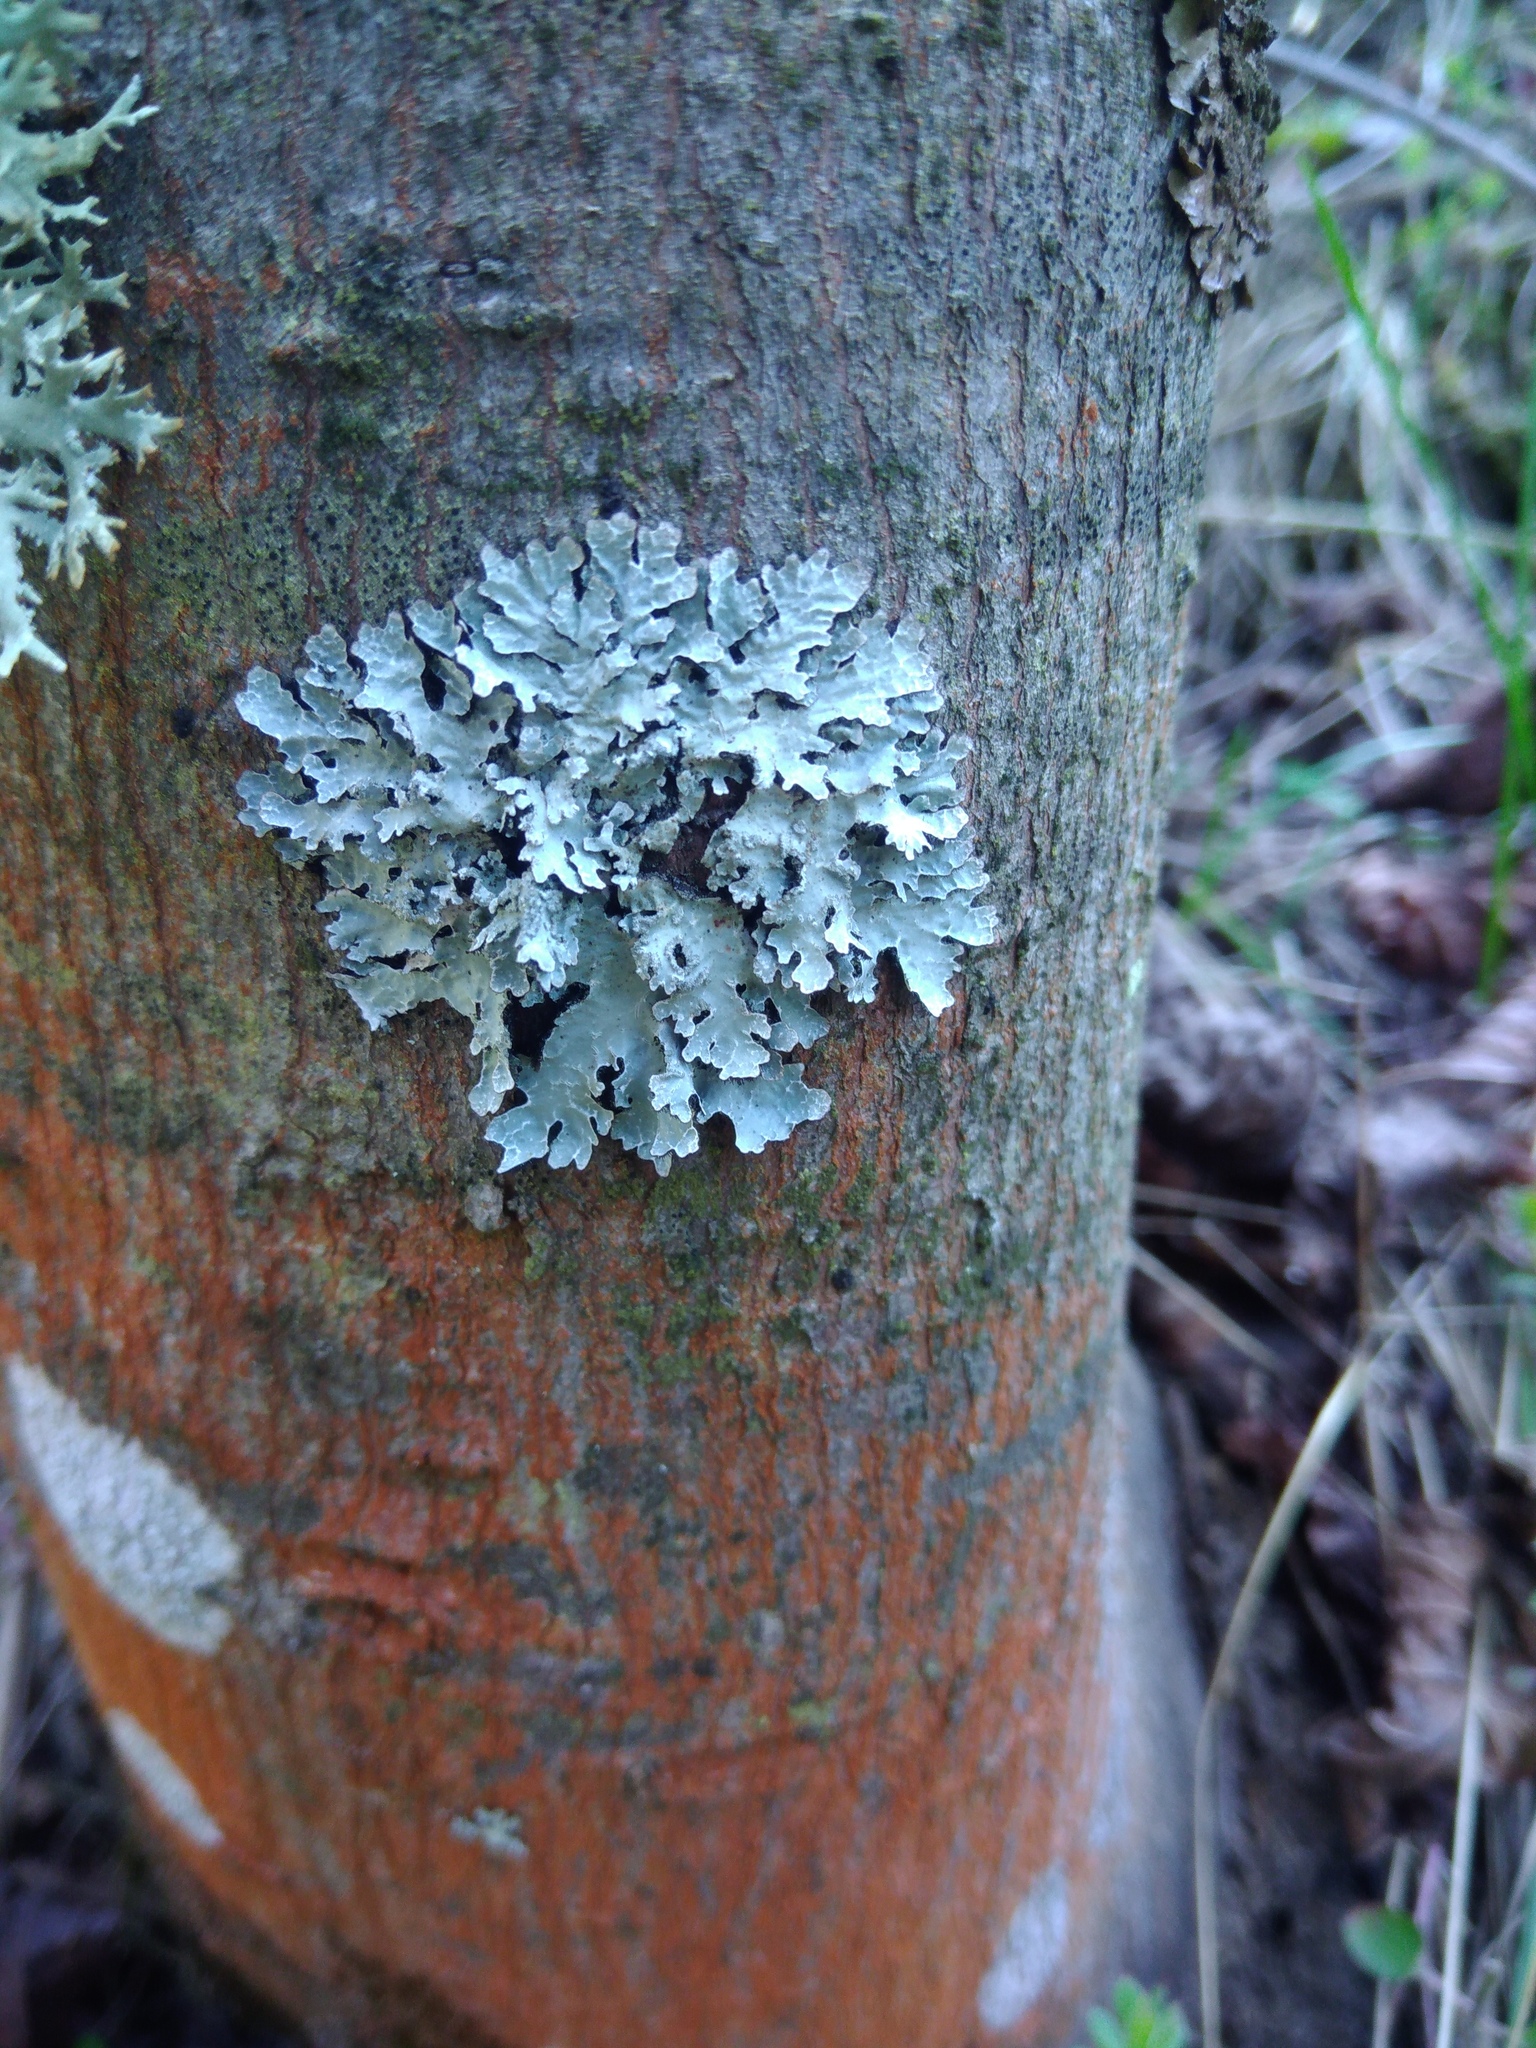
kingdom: Fungi
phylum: Ascomycota
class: Lecanoromycetes
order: Lecanorales
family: Parmeliaceae
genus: Parmelia
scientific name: Parmelia sulcata
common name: Netted shield lichen
